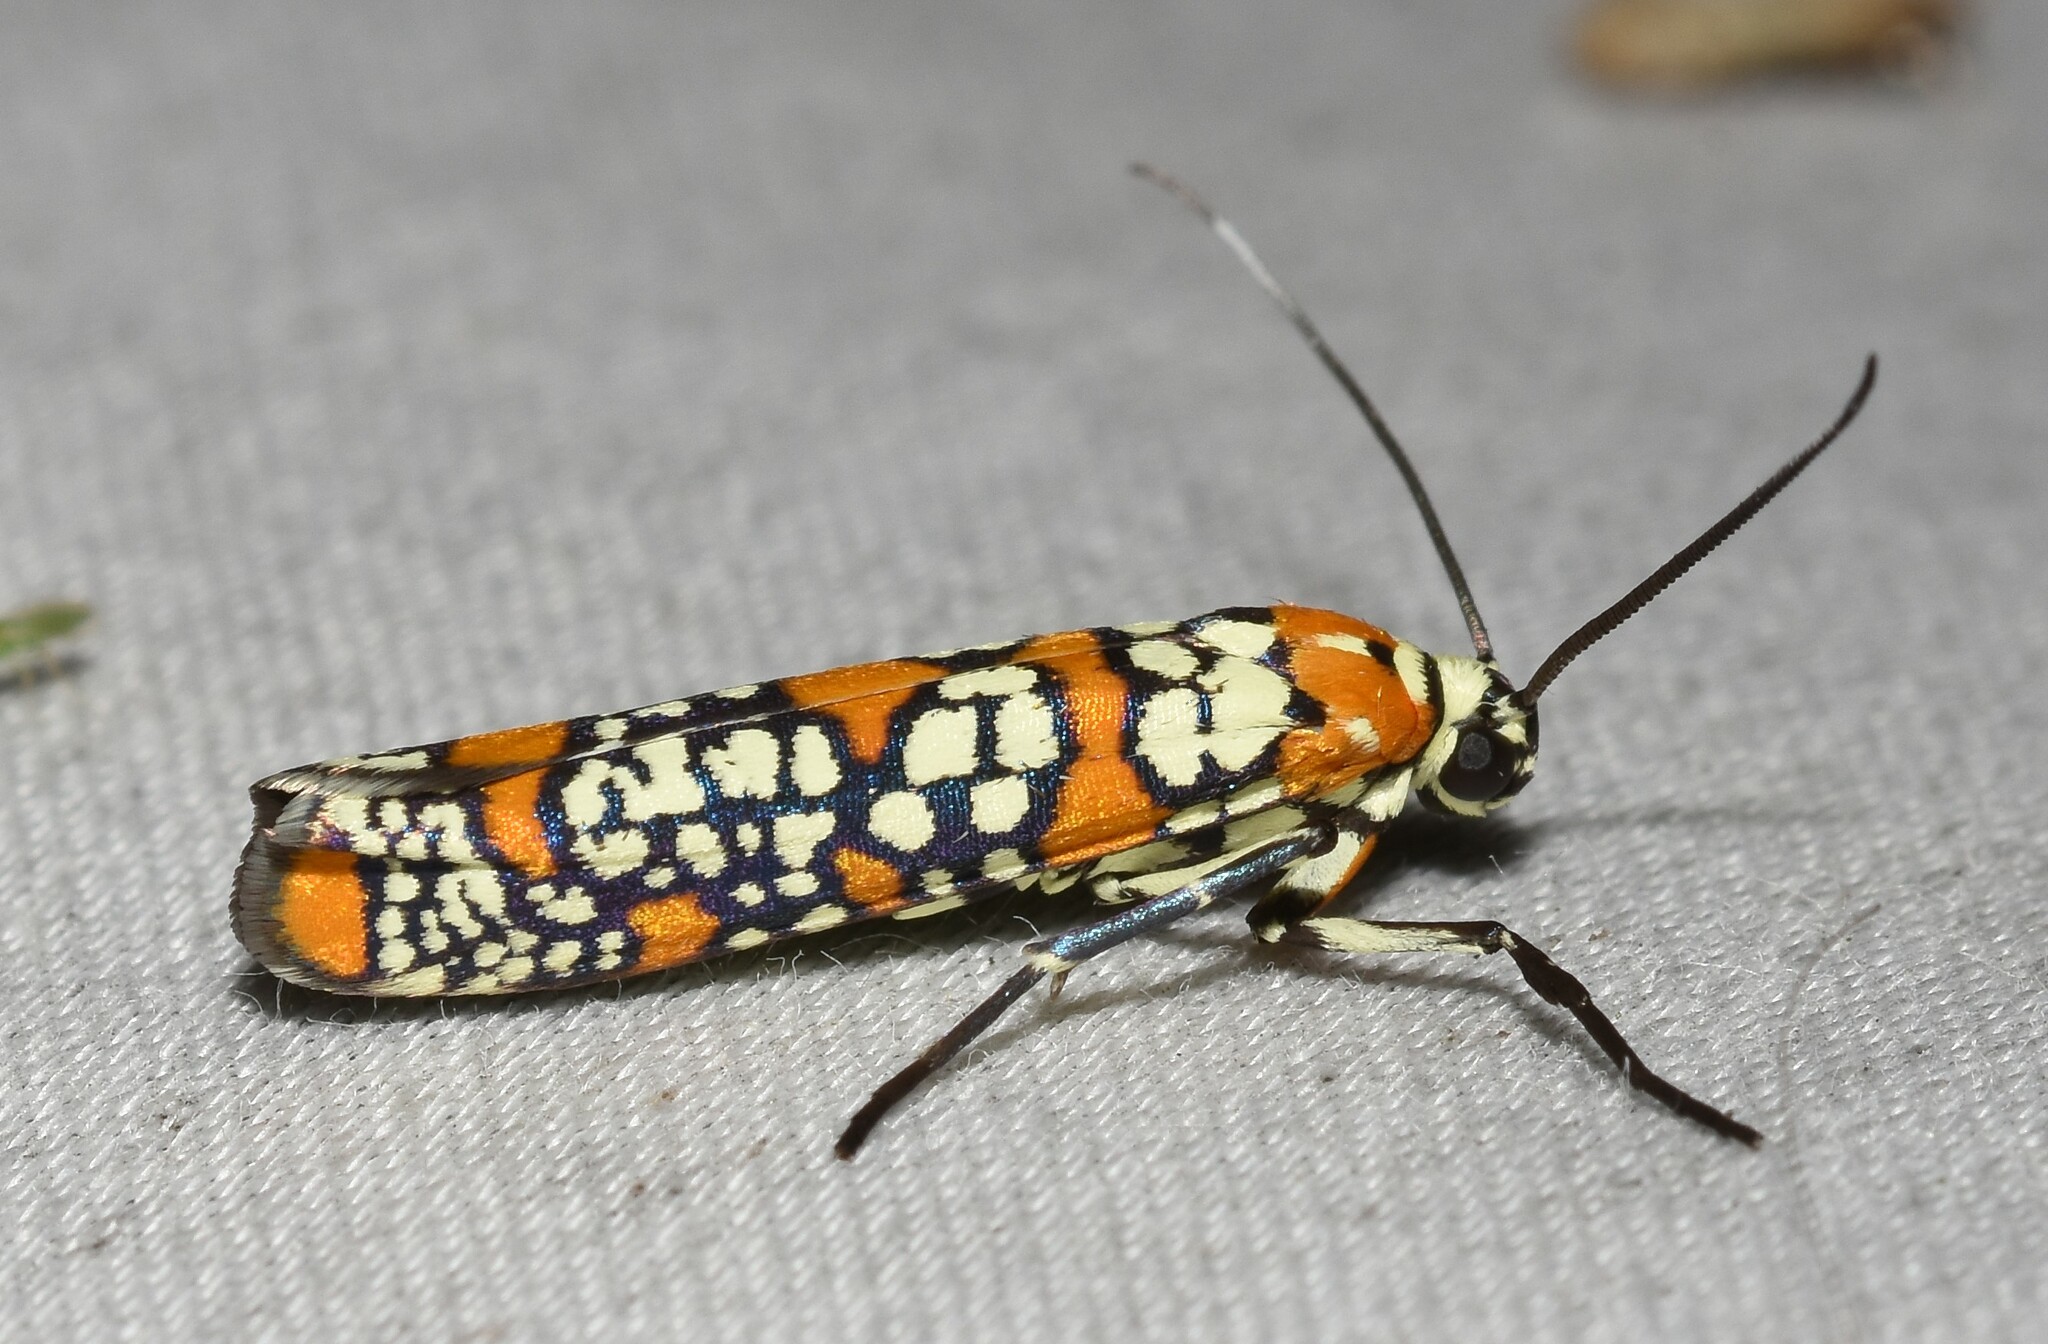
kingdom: Animalia
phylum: Arthropoda
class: Insecta
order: Lepidoptera
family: Attevidae
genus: Atteva
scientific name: Atteva punctella
